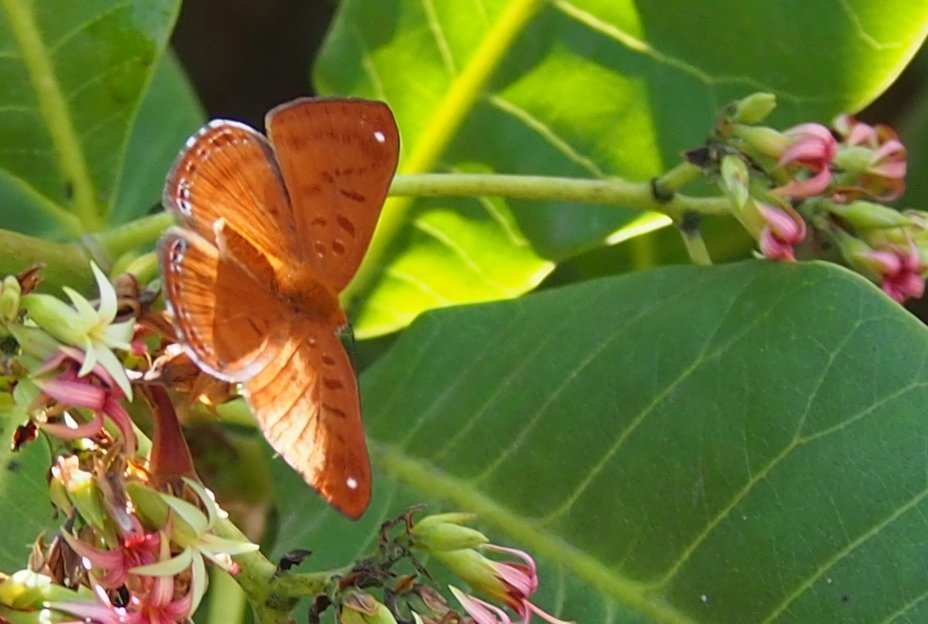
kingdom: Animalia
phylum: Arthropoda
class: Insecta
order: Lepidoptera
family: Riodinidae
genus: Synargis
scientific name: Synargis mycone
